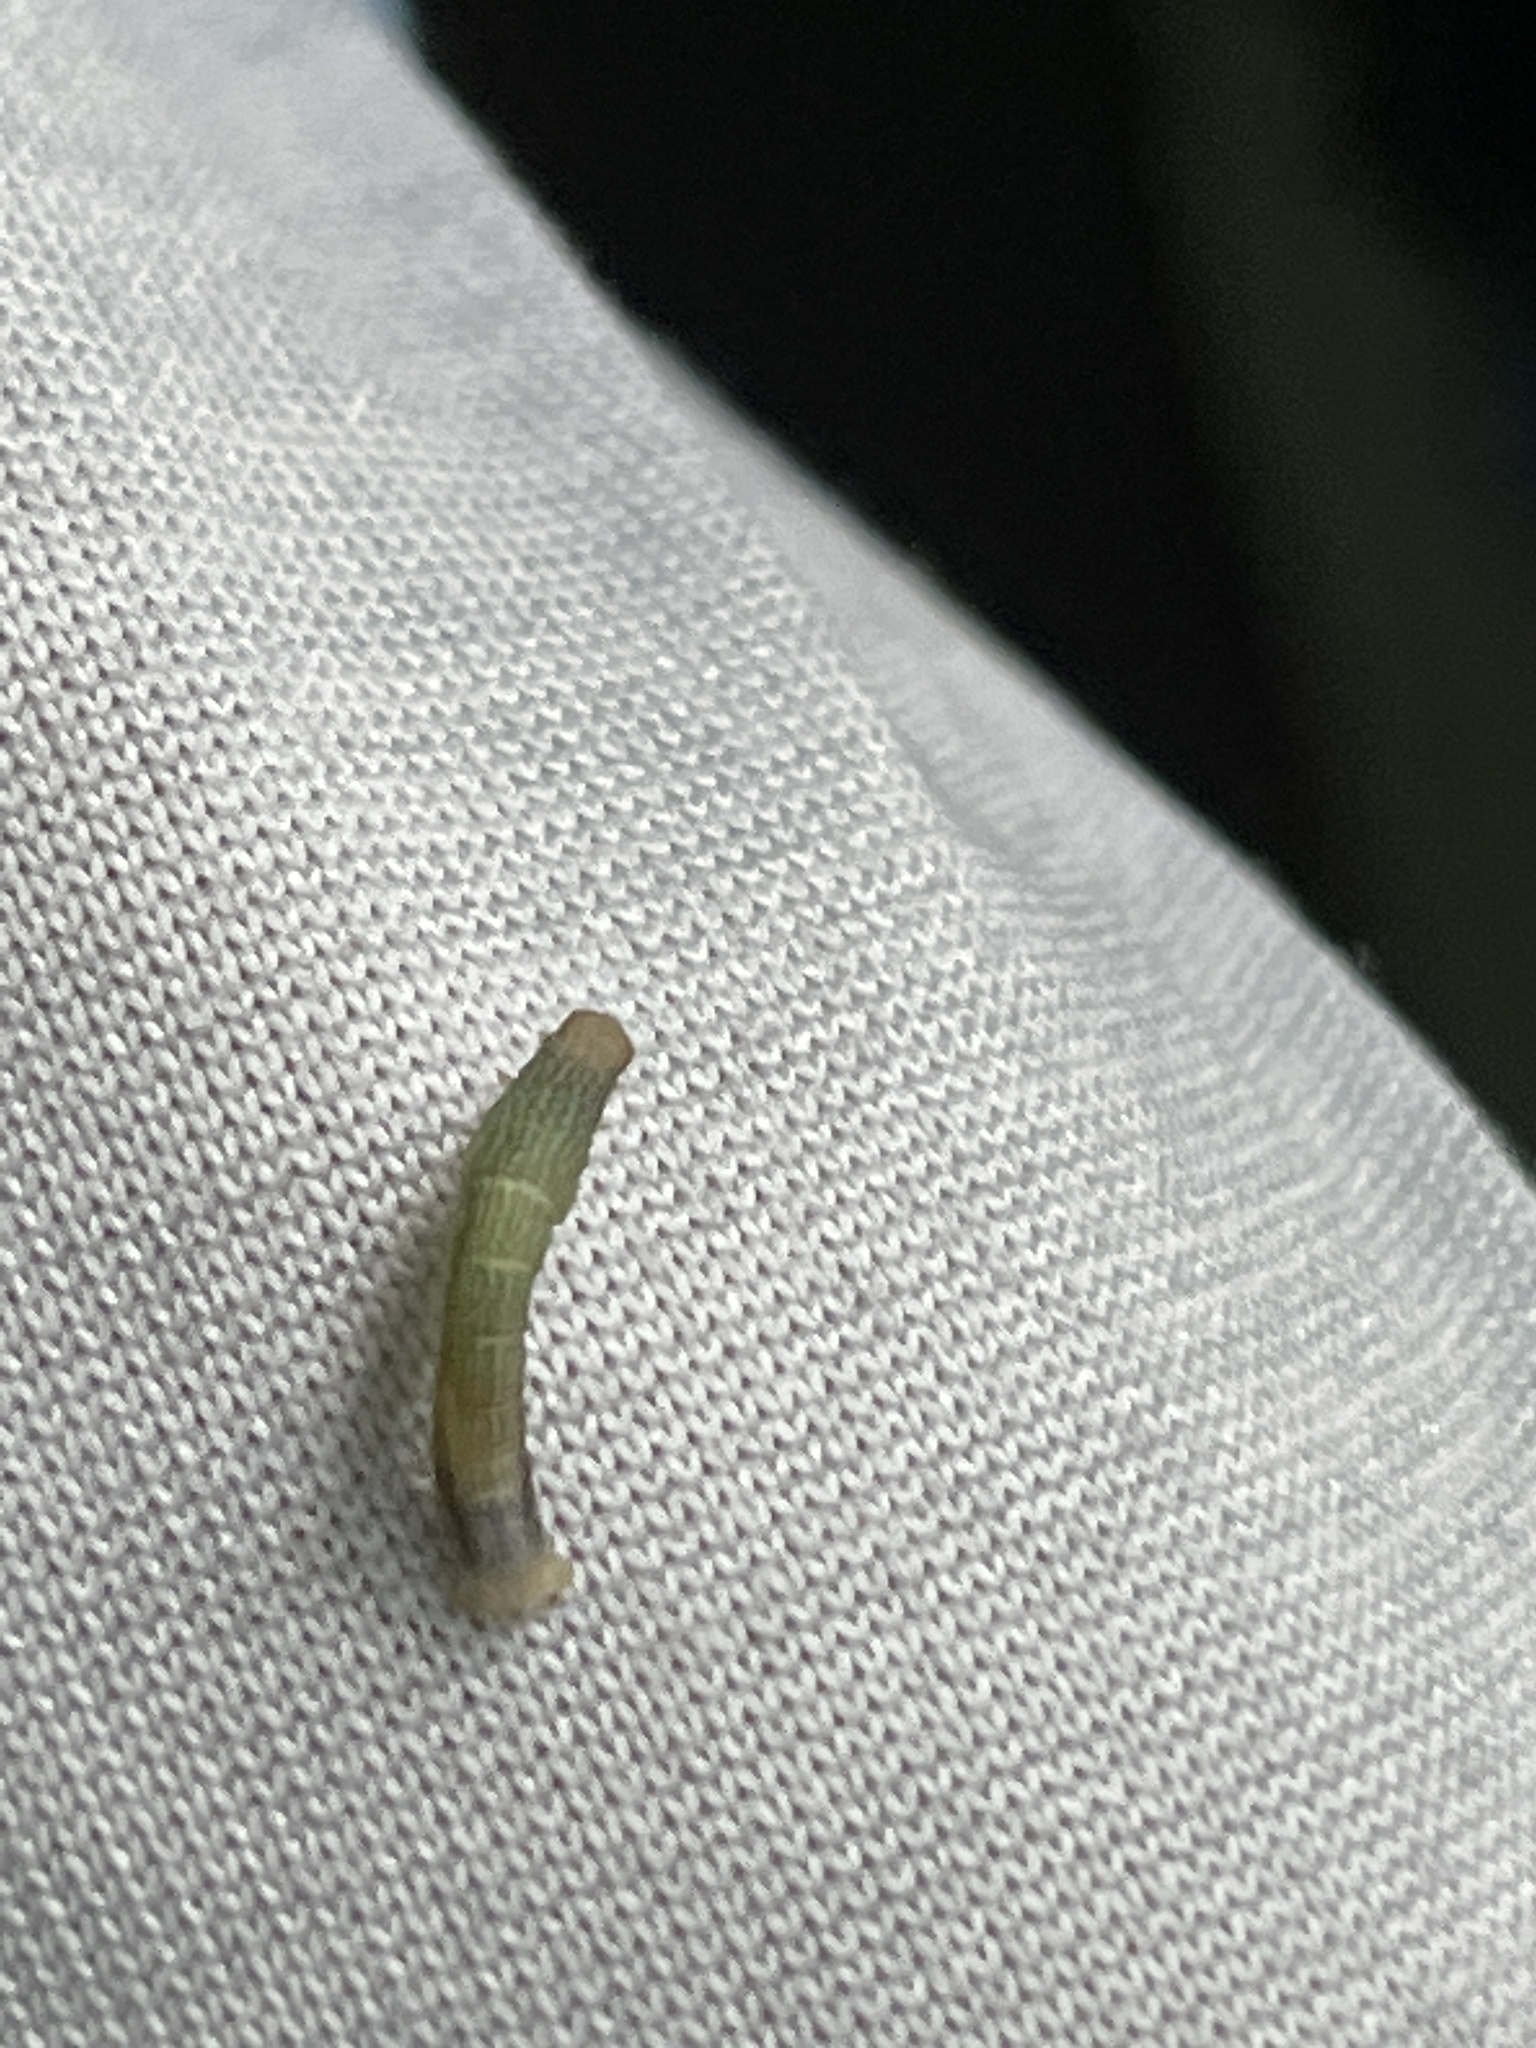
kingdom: Animalia
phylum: Arthropoda
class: Insecta
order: Lepidoptera
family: Geometridae
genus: Epimecis
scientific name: Epimecis hortaria
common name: Tulip-tree beauty
